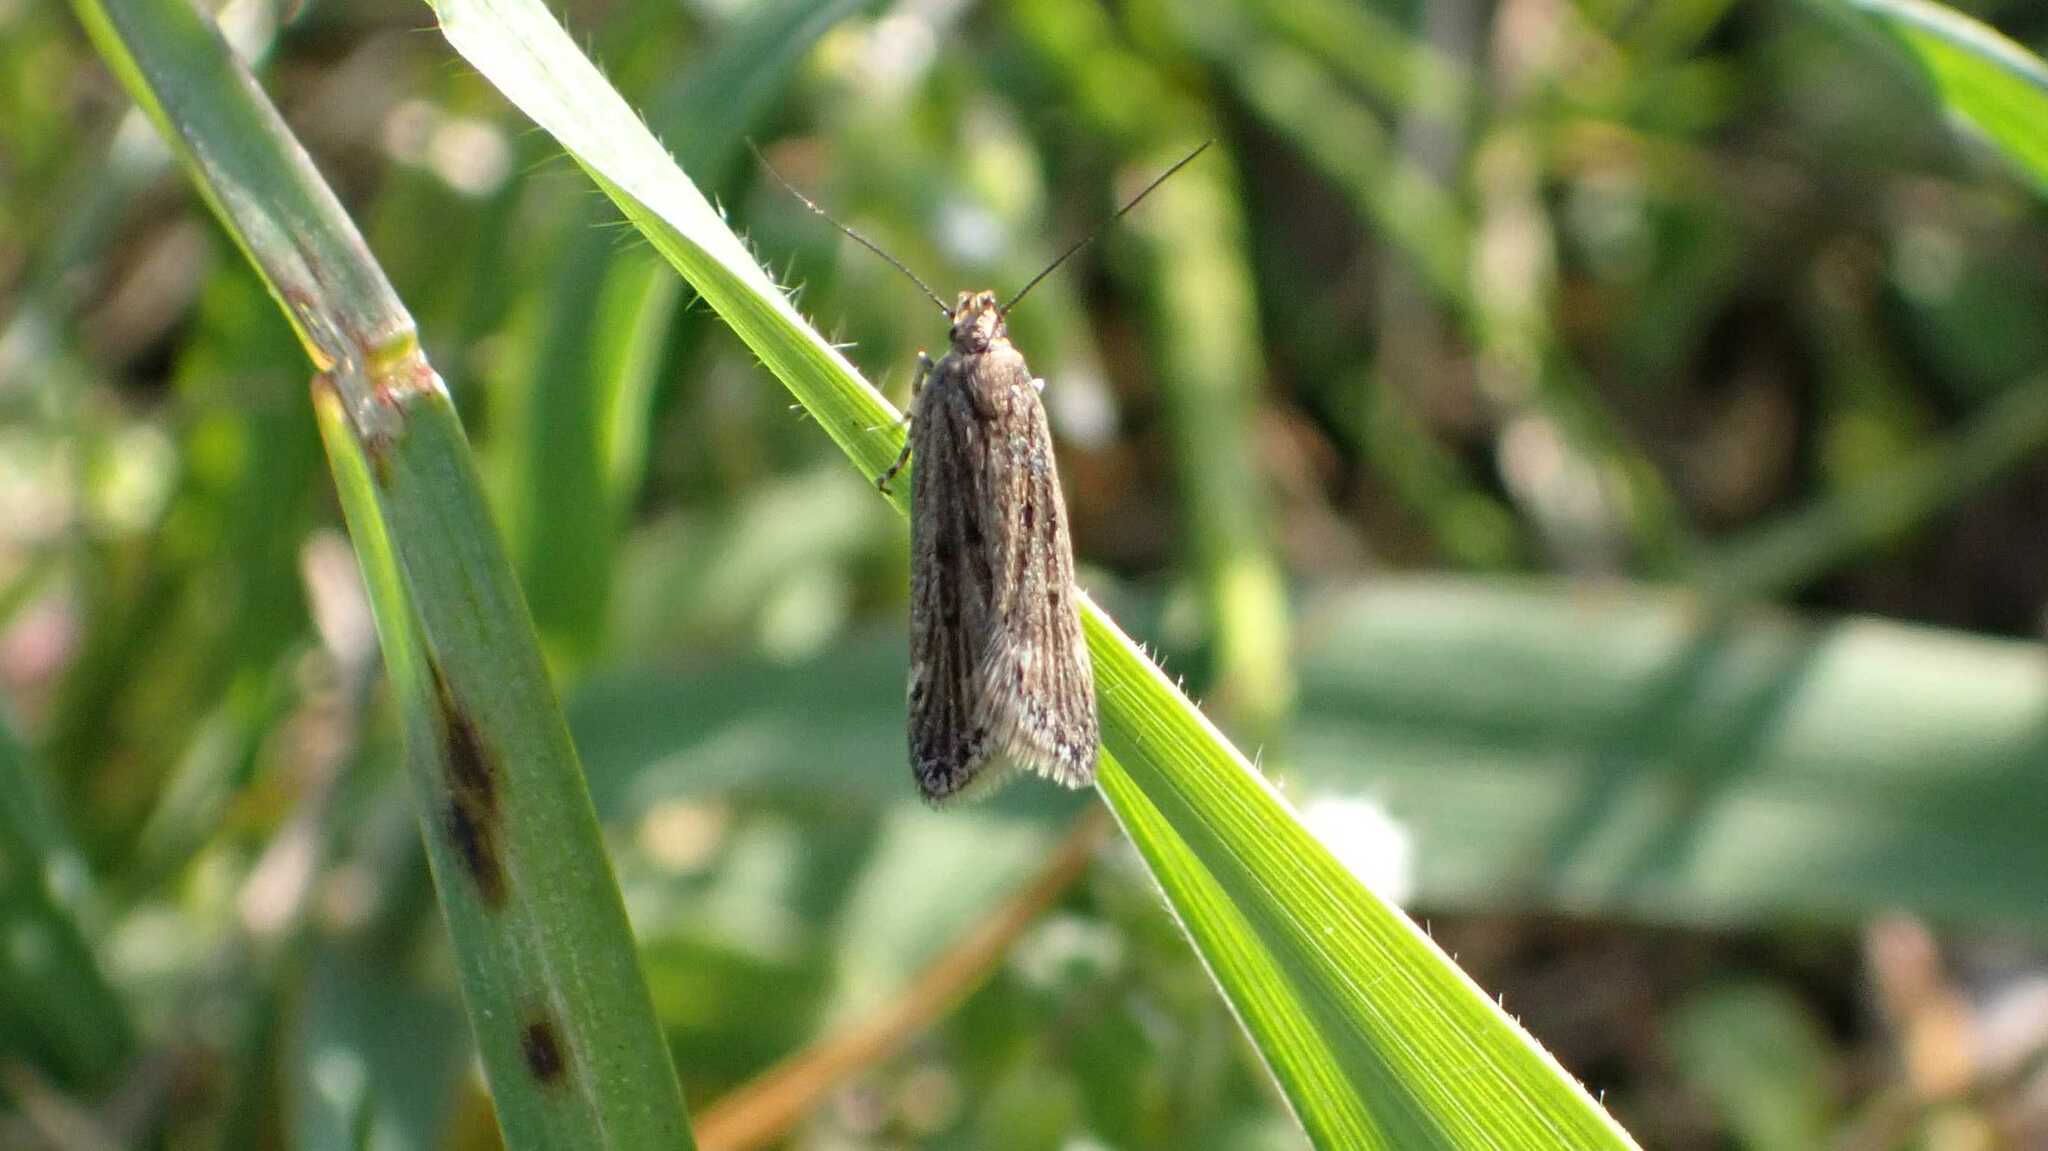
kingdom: Animalia
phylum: Arthropoda
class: Insecta
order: Lepidoptera
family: Gelechiidae
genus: Aroga
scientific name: Aroga velocella
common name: Dusky groundling
